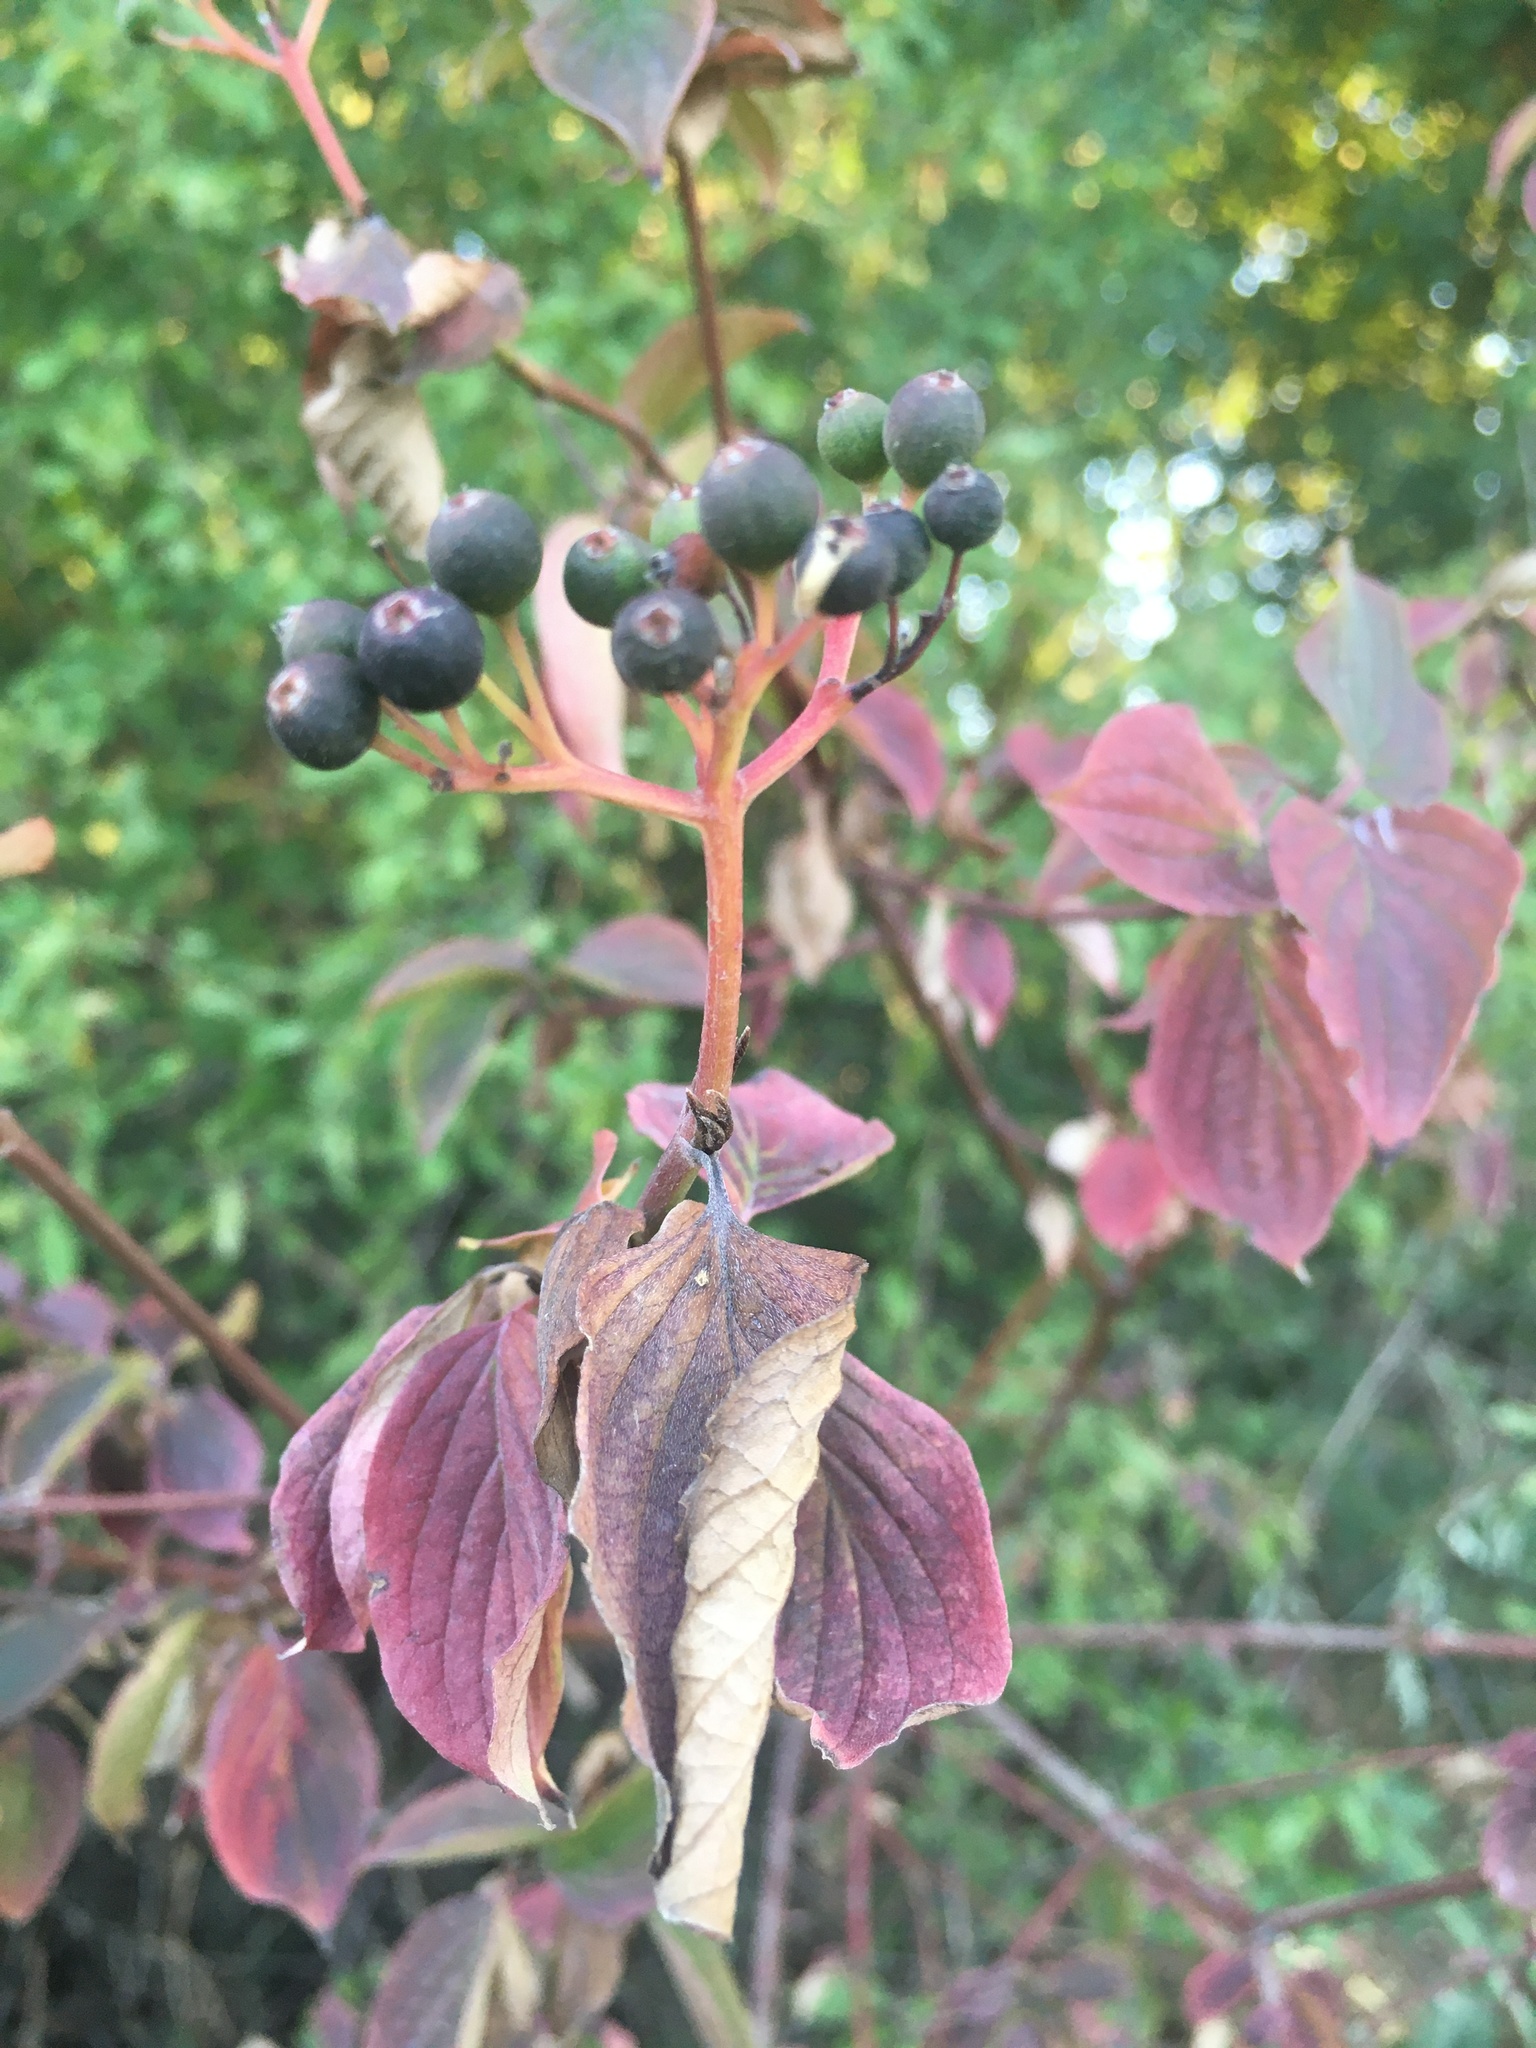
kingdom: Plantae
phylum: Tracheophyta
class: Magnoliopsida
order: Cornales
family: Cornaceae
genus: Cornus
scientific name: Cornus sanguinea
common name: Dogwood
